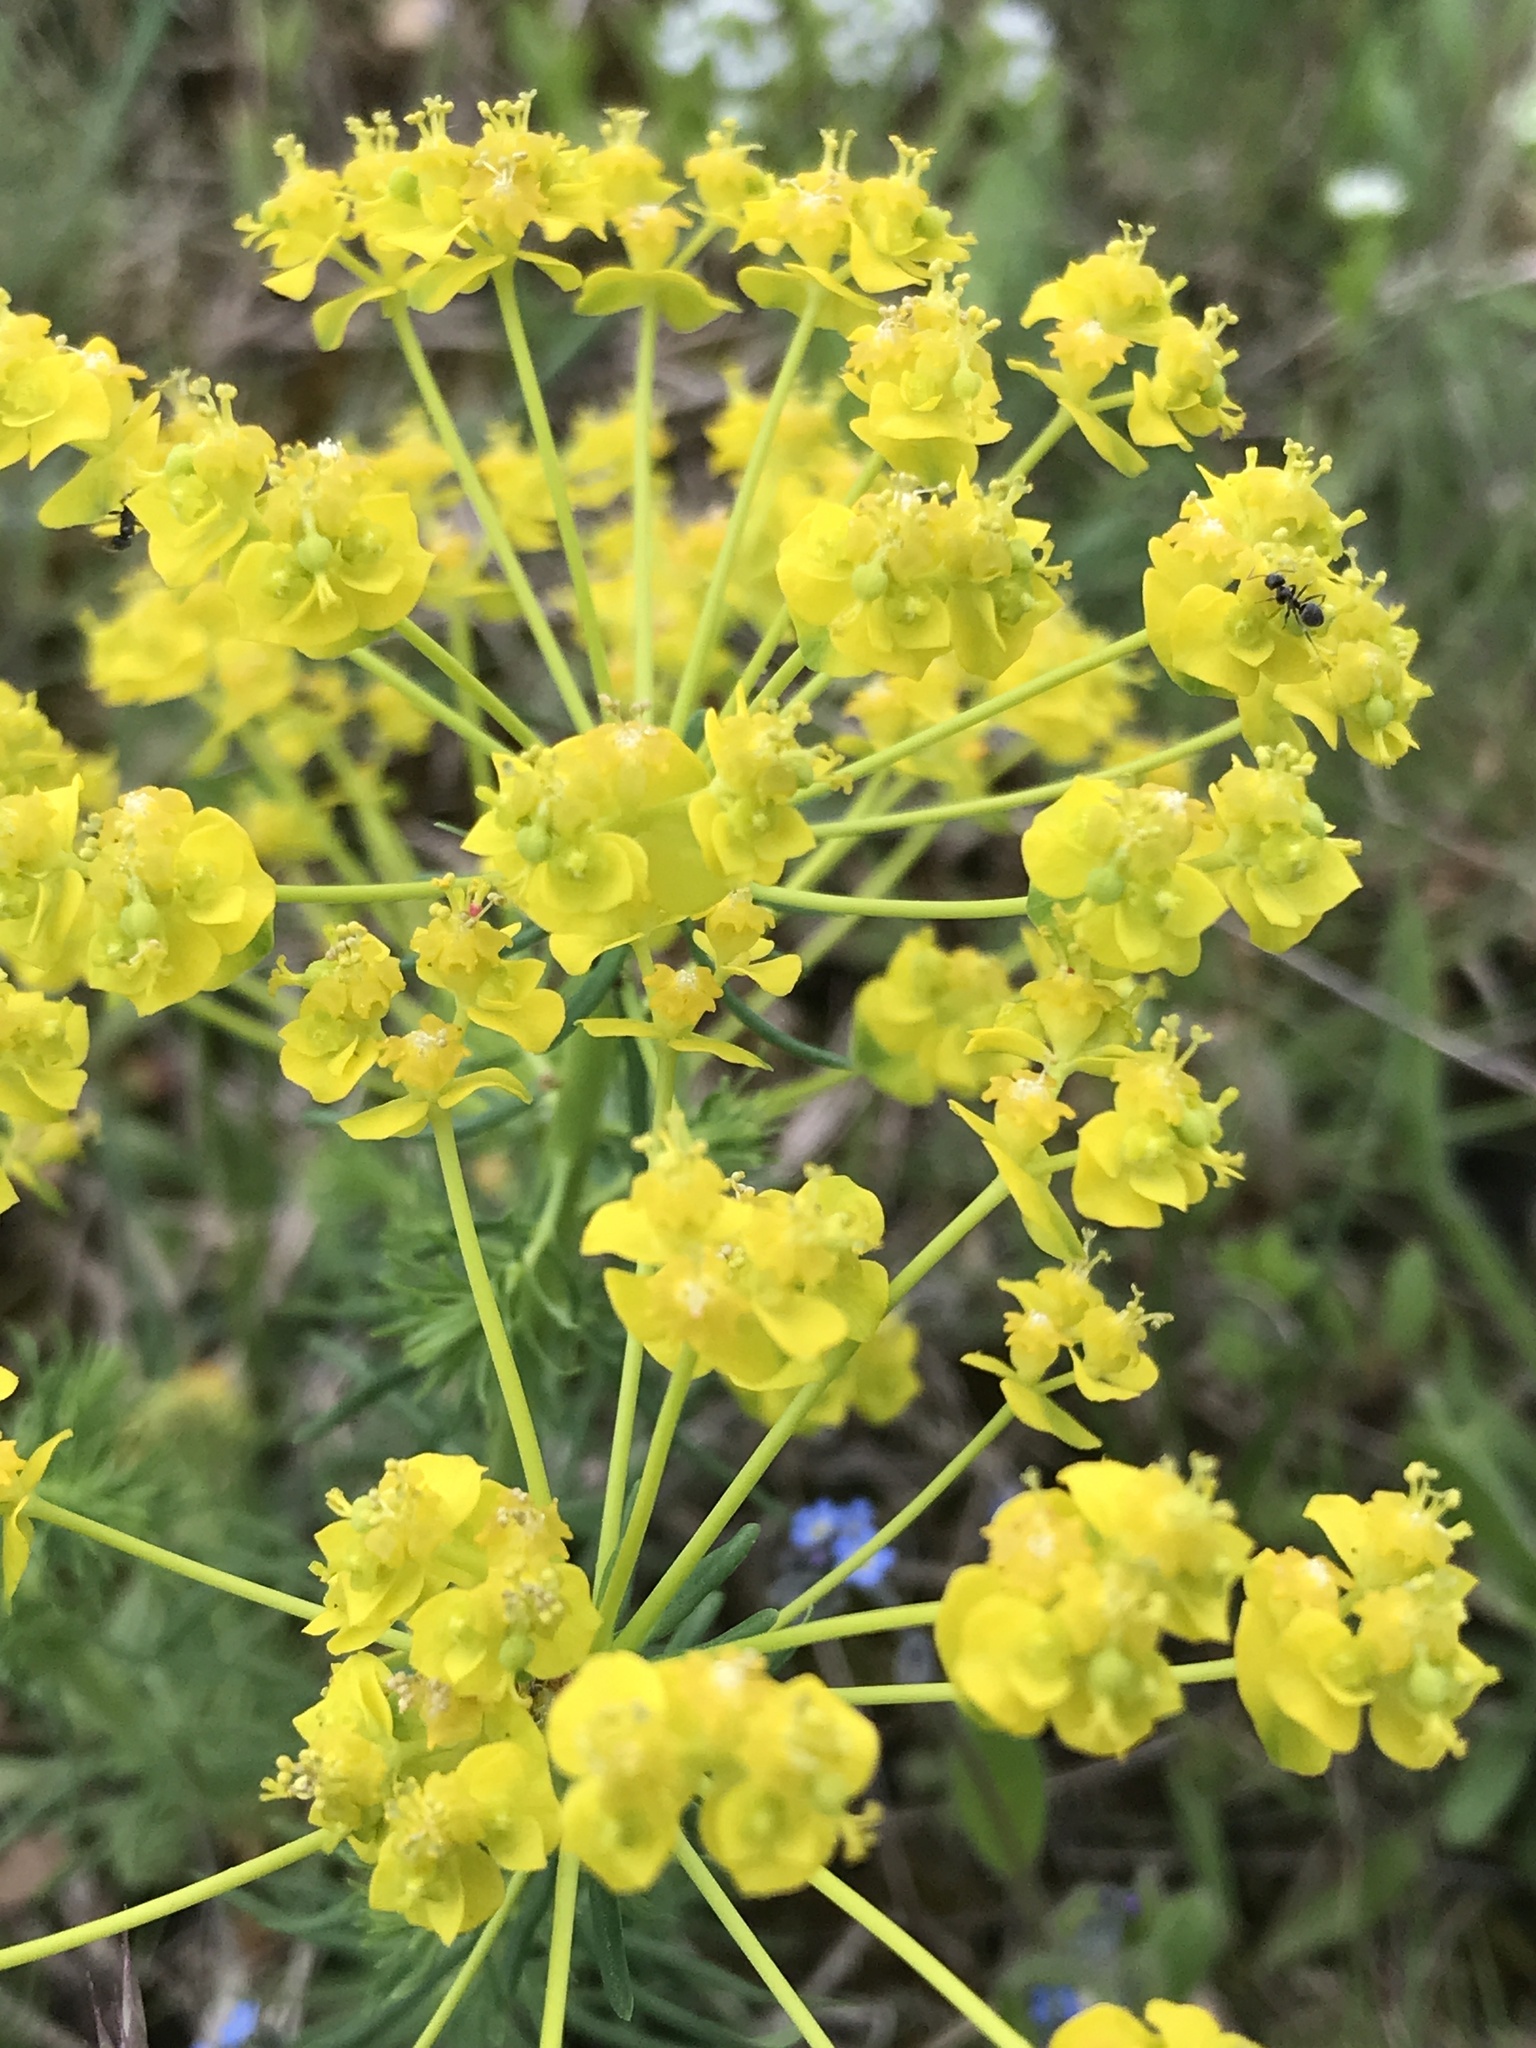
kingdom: Plantae
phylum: Tracheophyta
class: Magnoliopsida
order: Malpighiales
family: Euphorbiaceae
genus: Euphorbia
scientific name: Euphorbia cyparissias
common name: Cypress spurge
